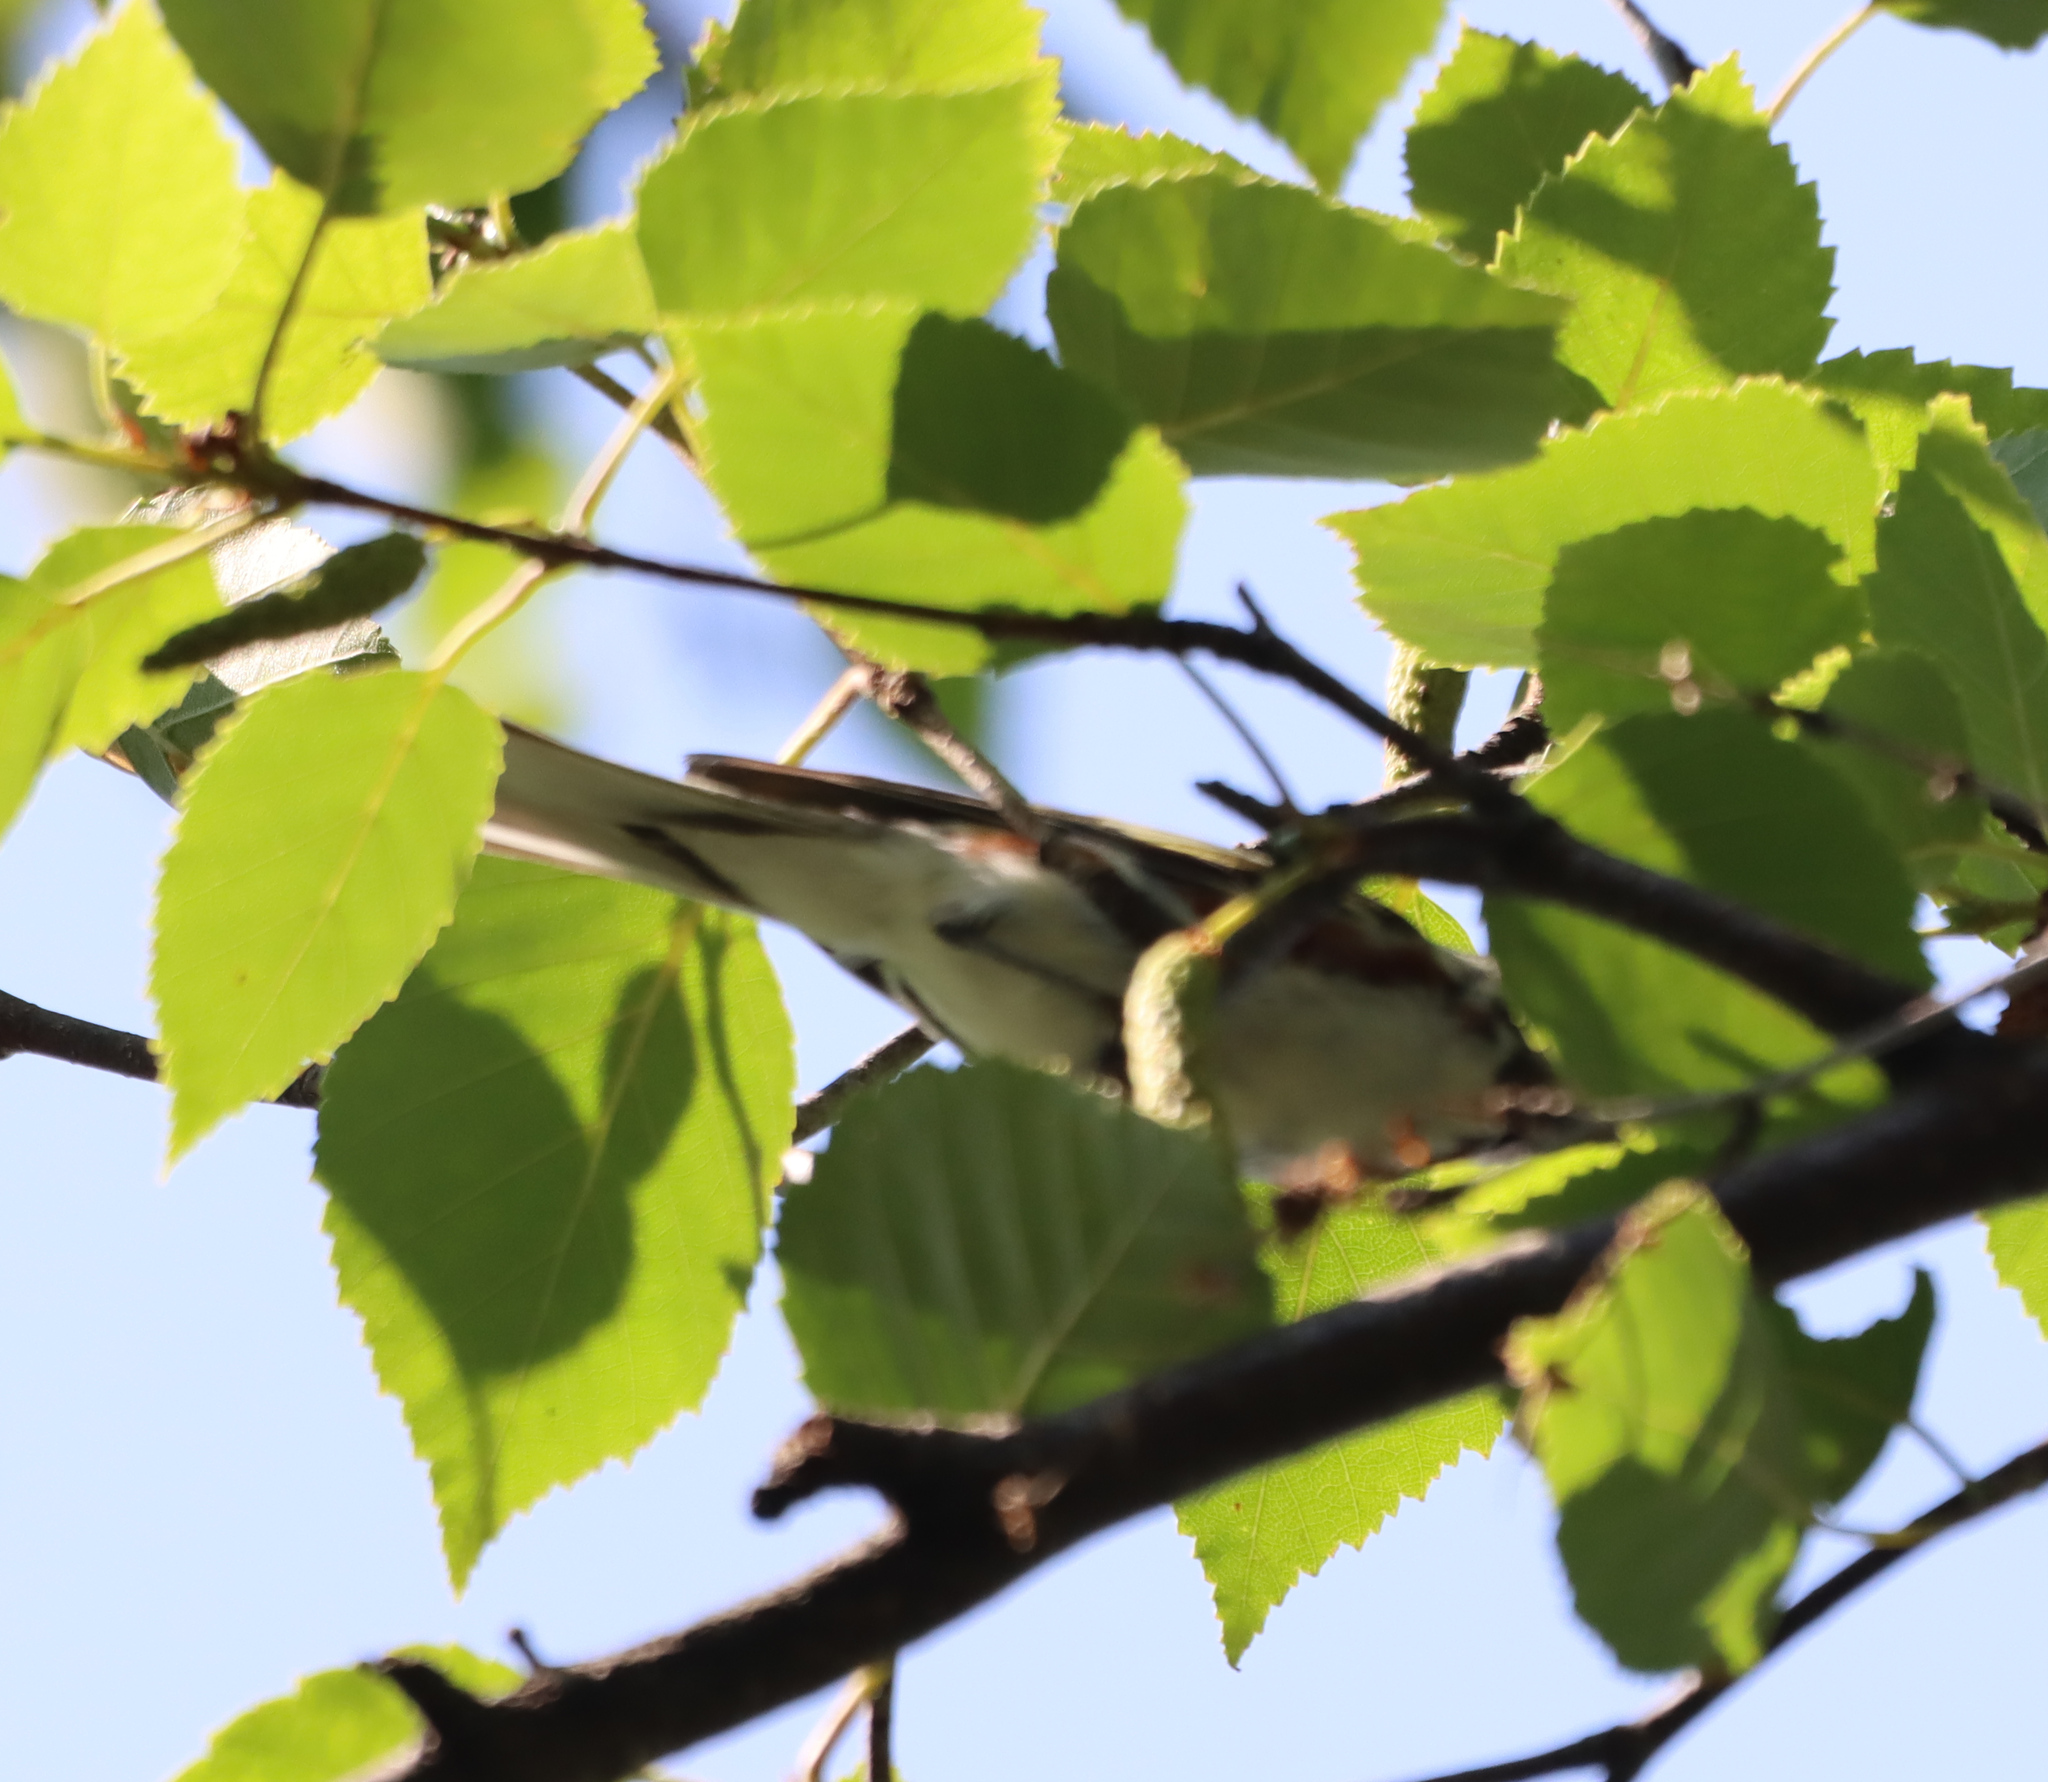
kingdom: Animalia
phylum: Chordata
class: Aves
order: Passeriformes
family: Parulidae
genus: Setophaga
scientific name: Setophaga pensylvanica
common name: Chestnut-sided warbler
